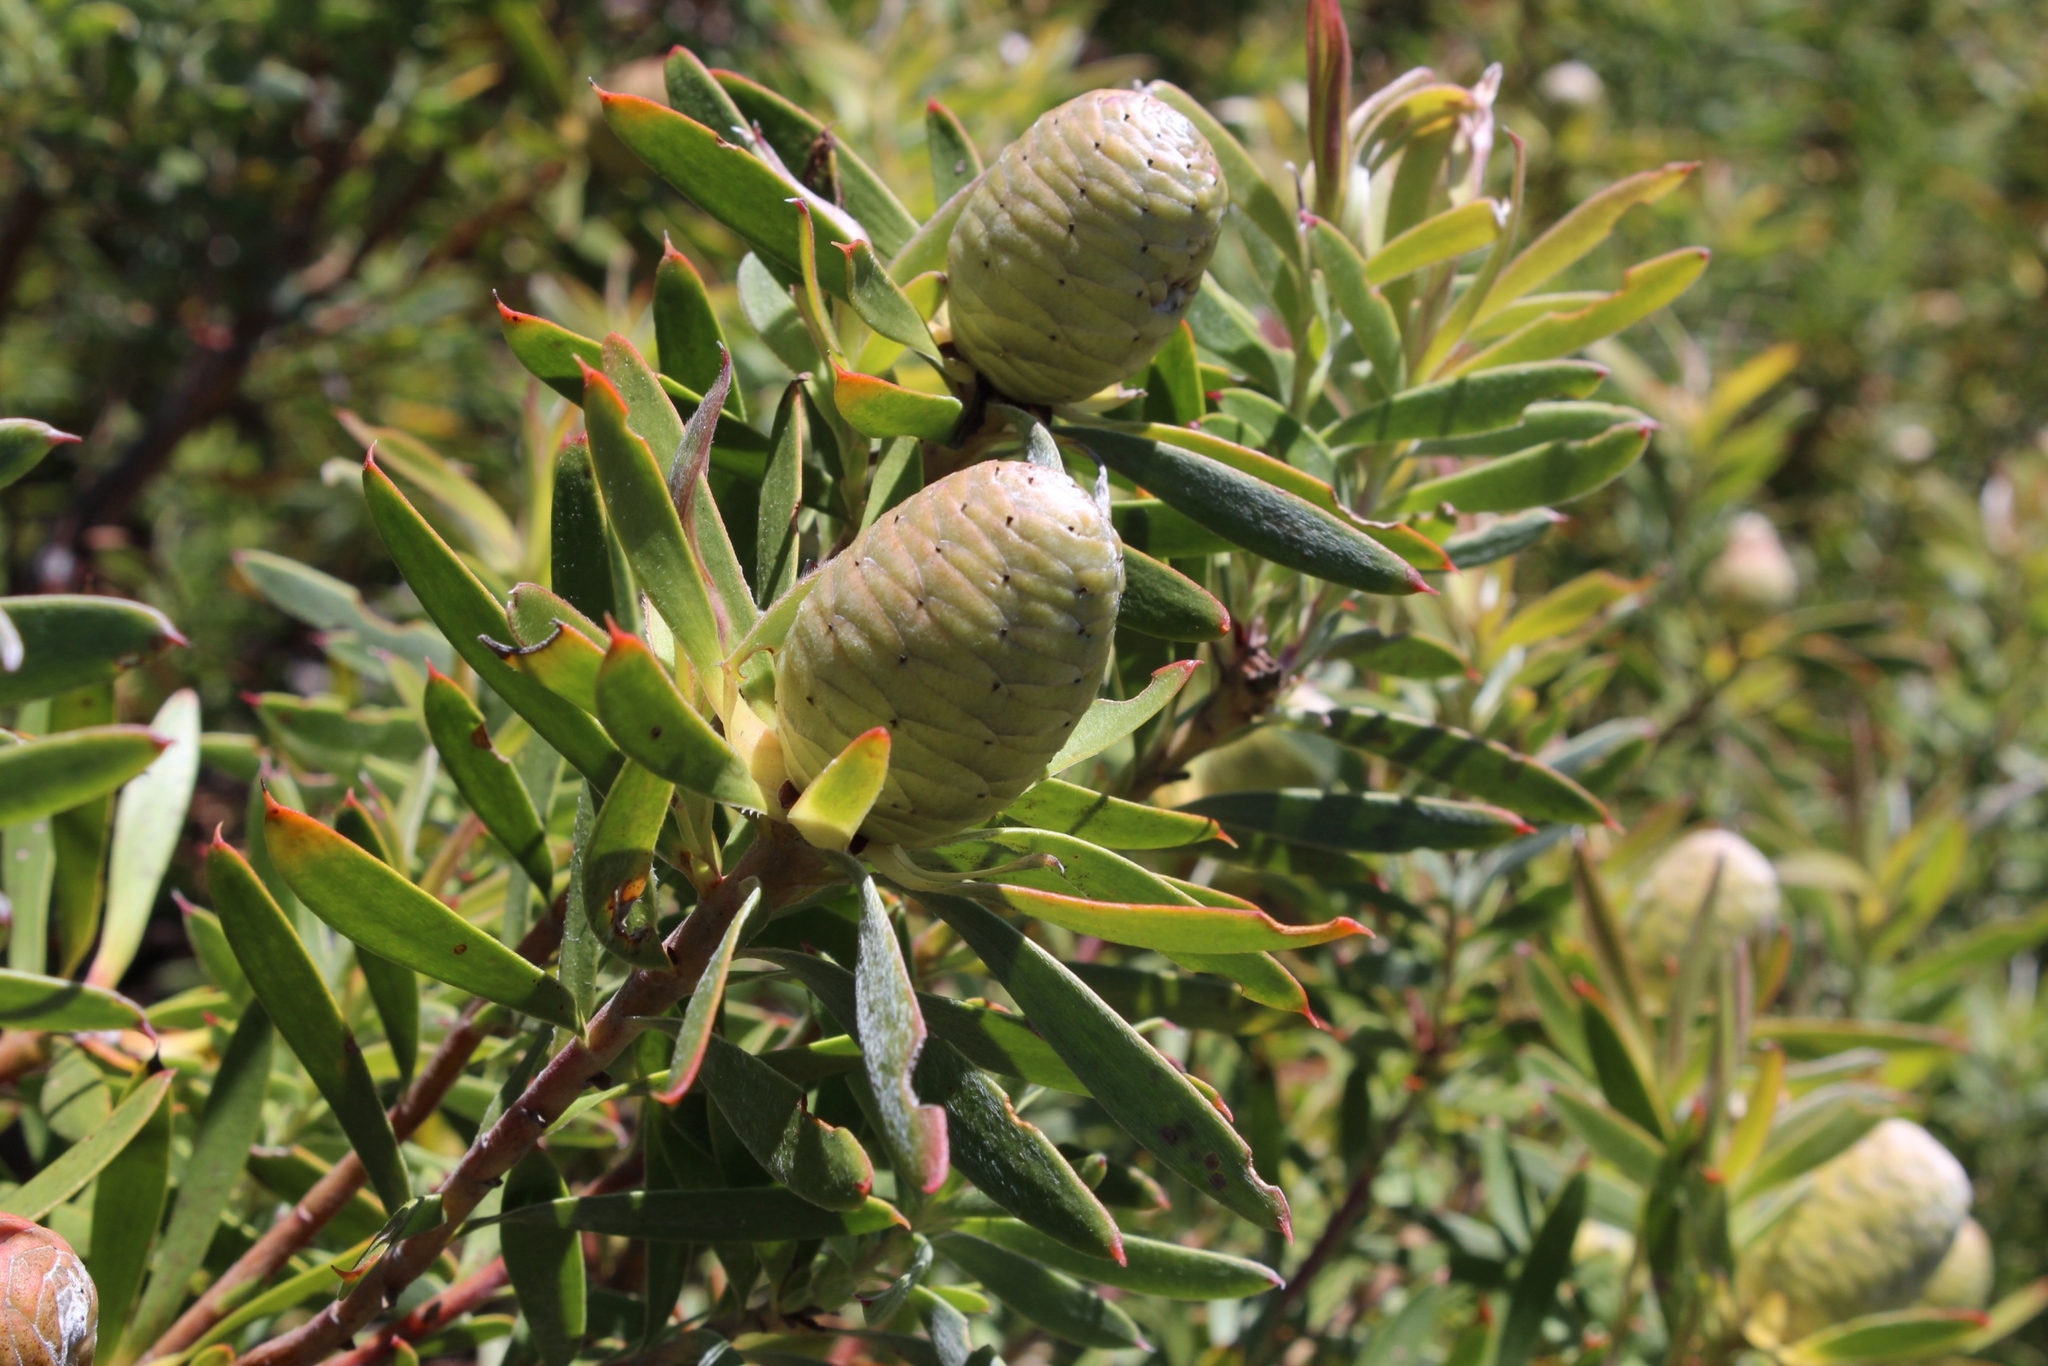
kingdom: Plantae
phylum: Tracheophyta
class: Magnoliopsida
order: Proteales
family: Proteaceae
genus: Leucadendron
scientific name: Leucadendron coniferum
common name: Dune conebush
